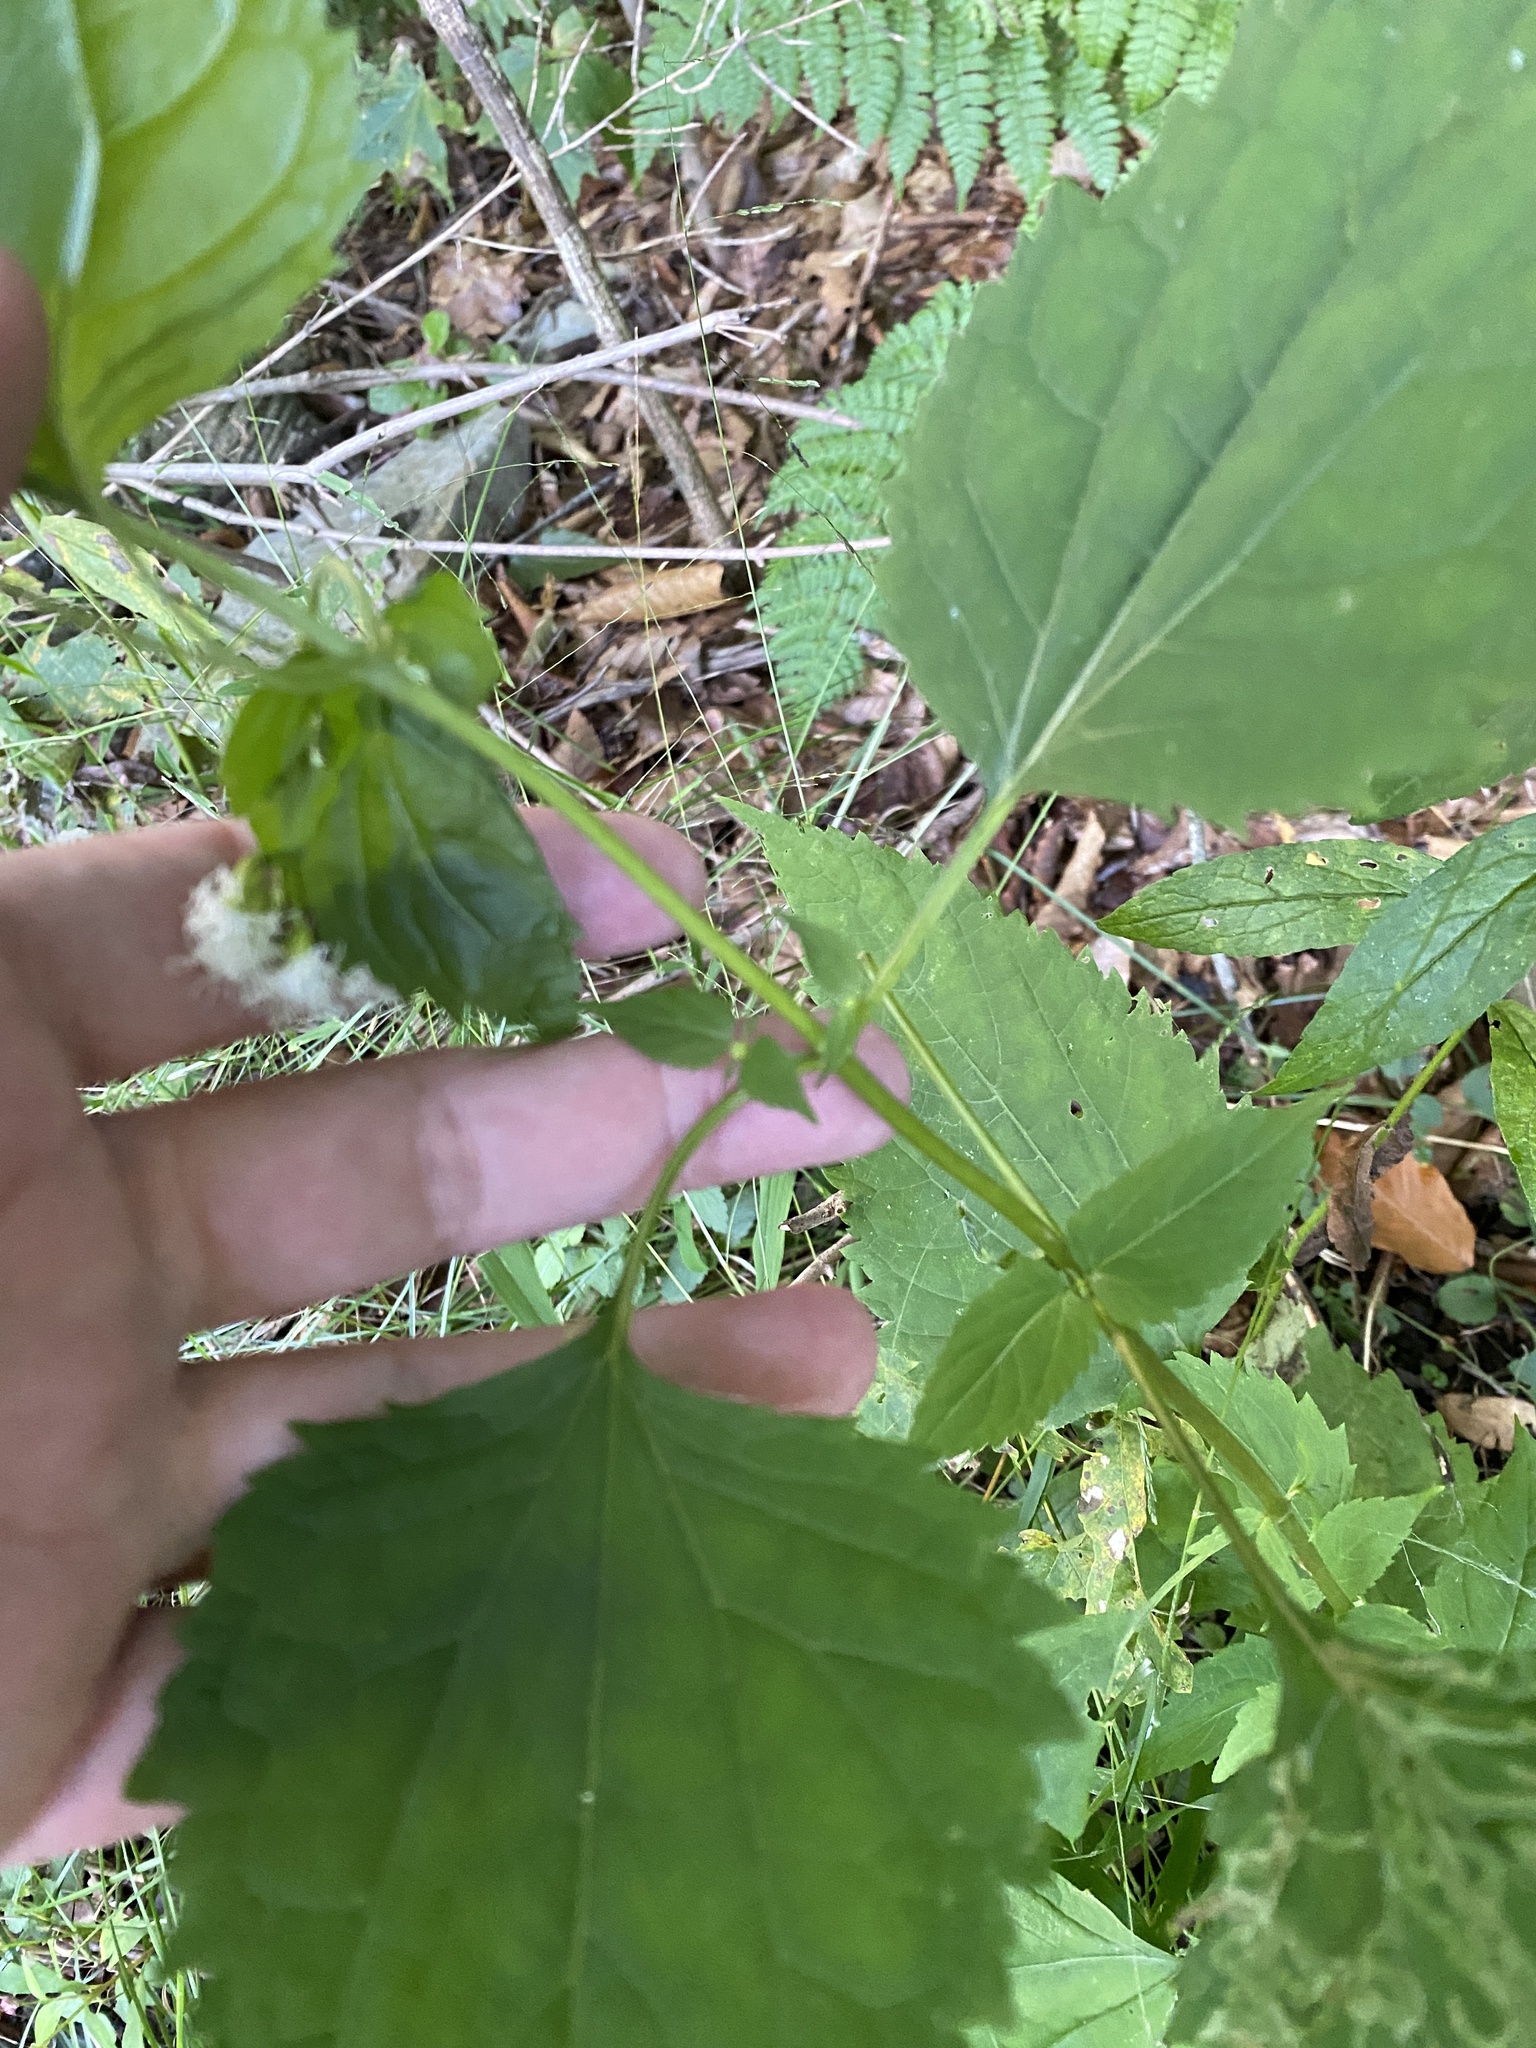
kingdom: Plantae
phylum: Tracheophyta
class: Magnoliopsida
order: Asterales
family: Asteraceae
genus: Ageratina
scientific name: Ageratina altissima
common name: White snakeroot
